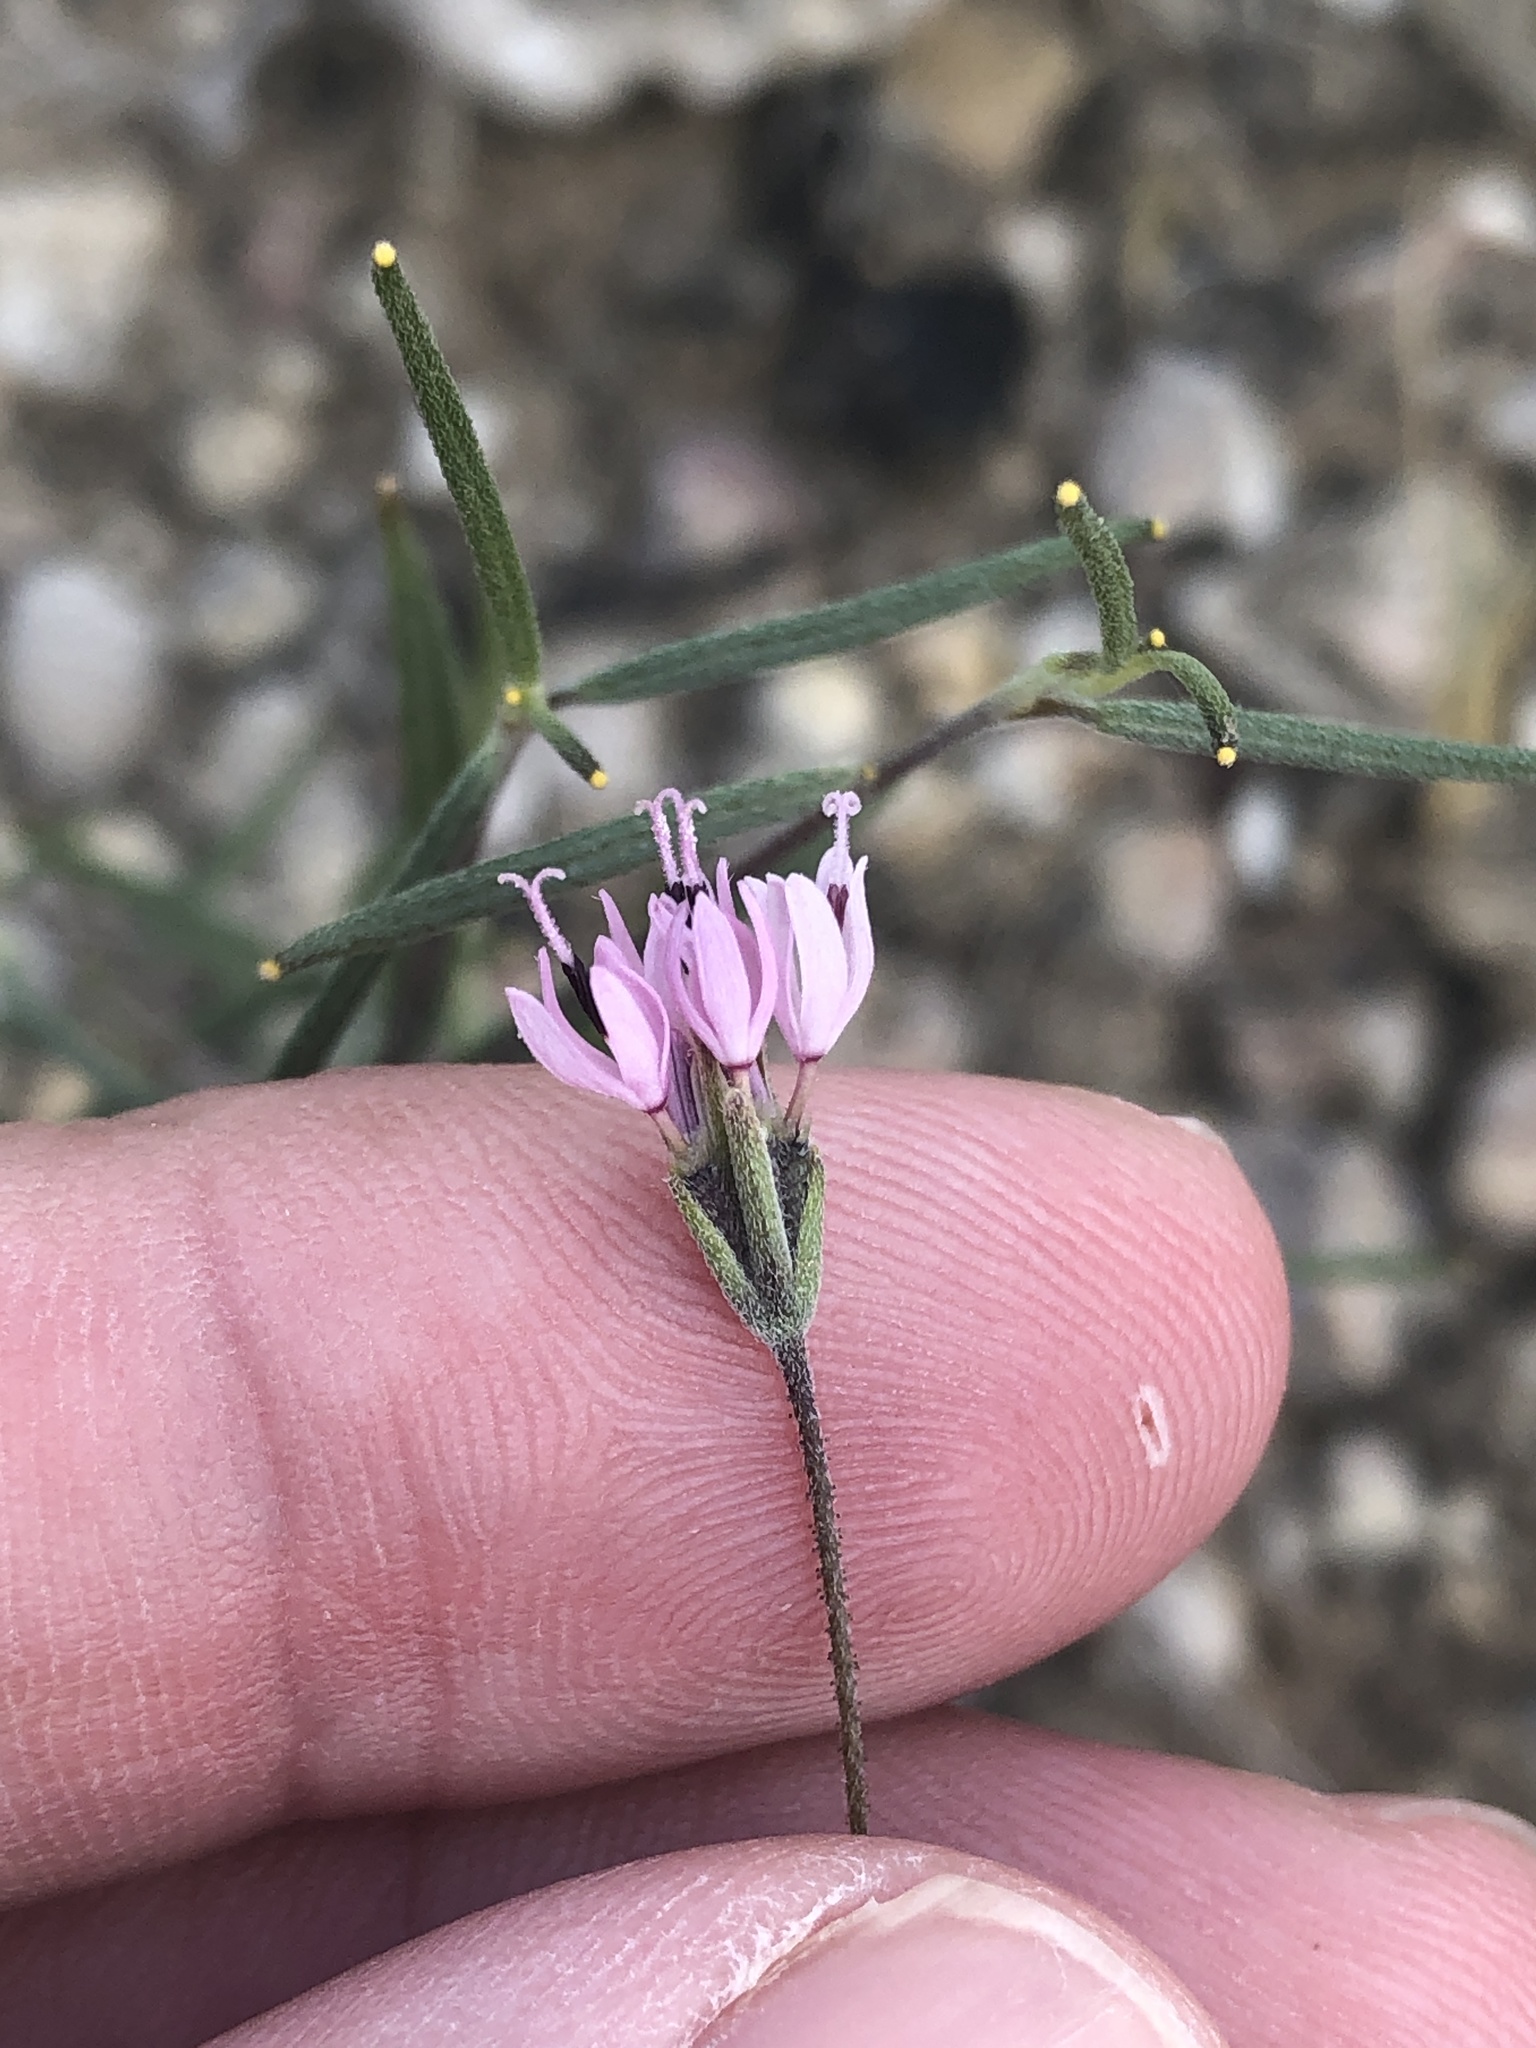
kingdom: Plantae
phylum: Tracheophyta
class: Magnoliopsida
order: Asterales
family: Asteraceae
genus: Palafoxia
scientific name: Palafoxia callosa
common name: Small palafox
